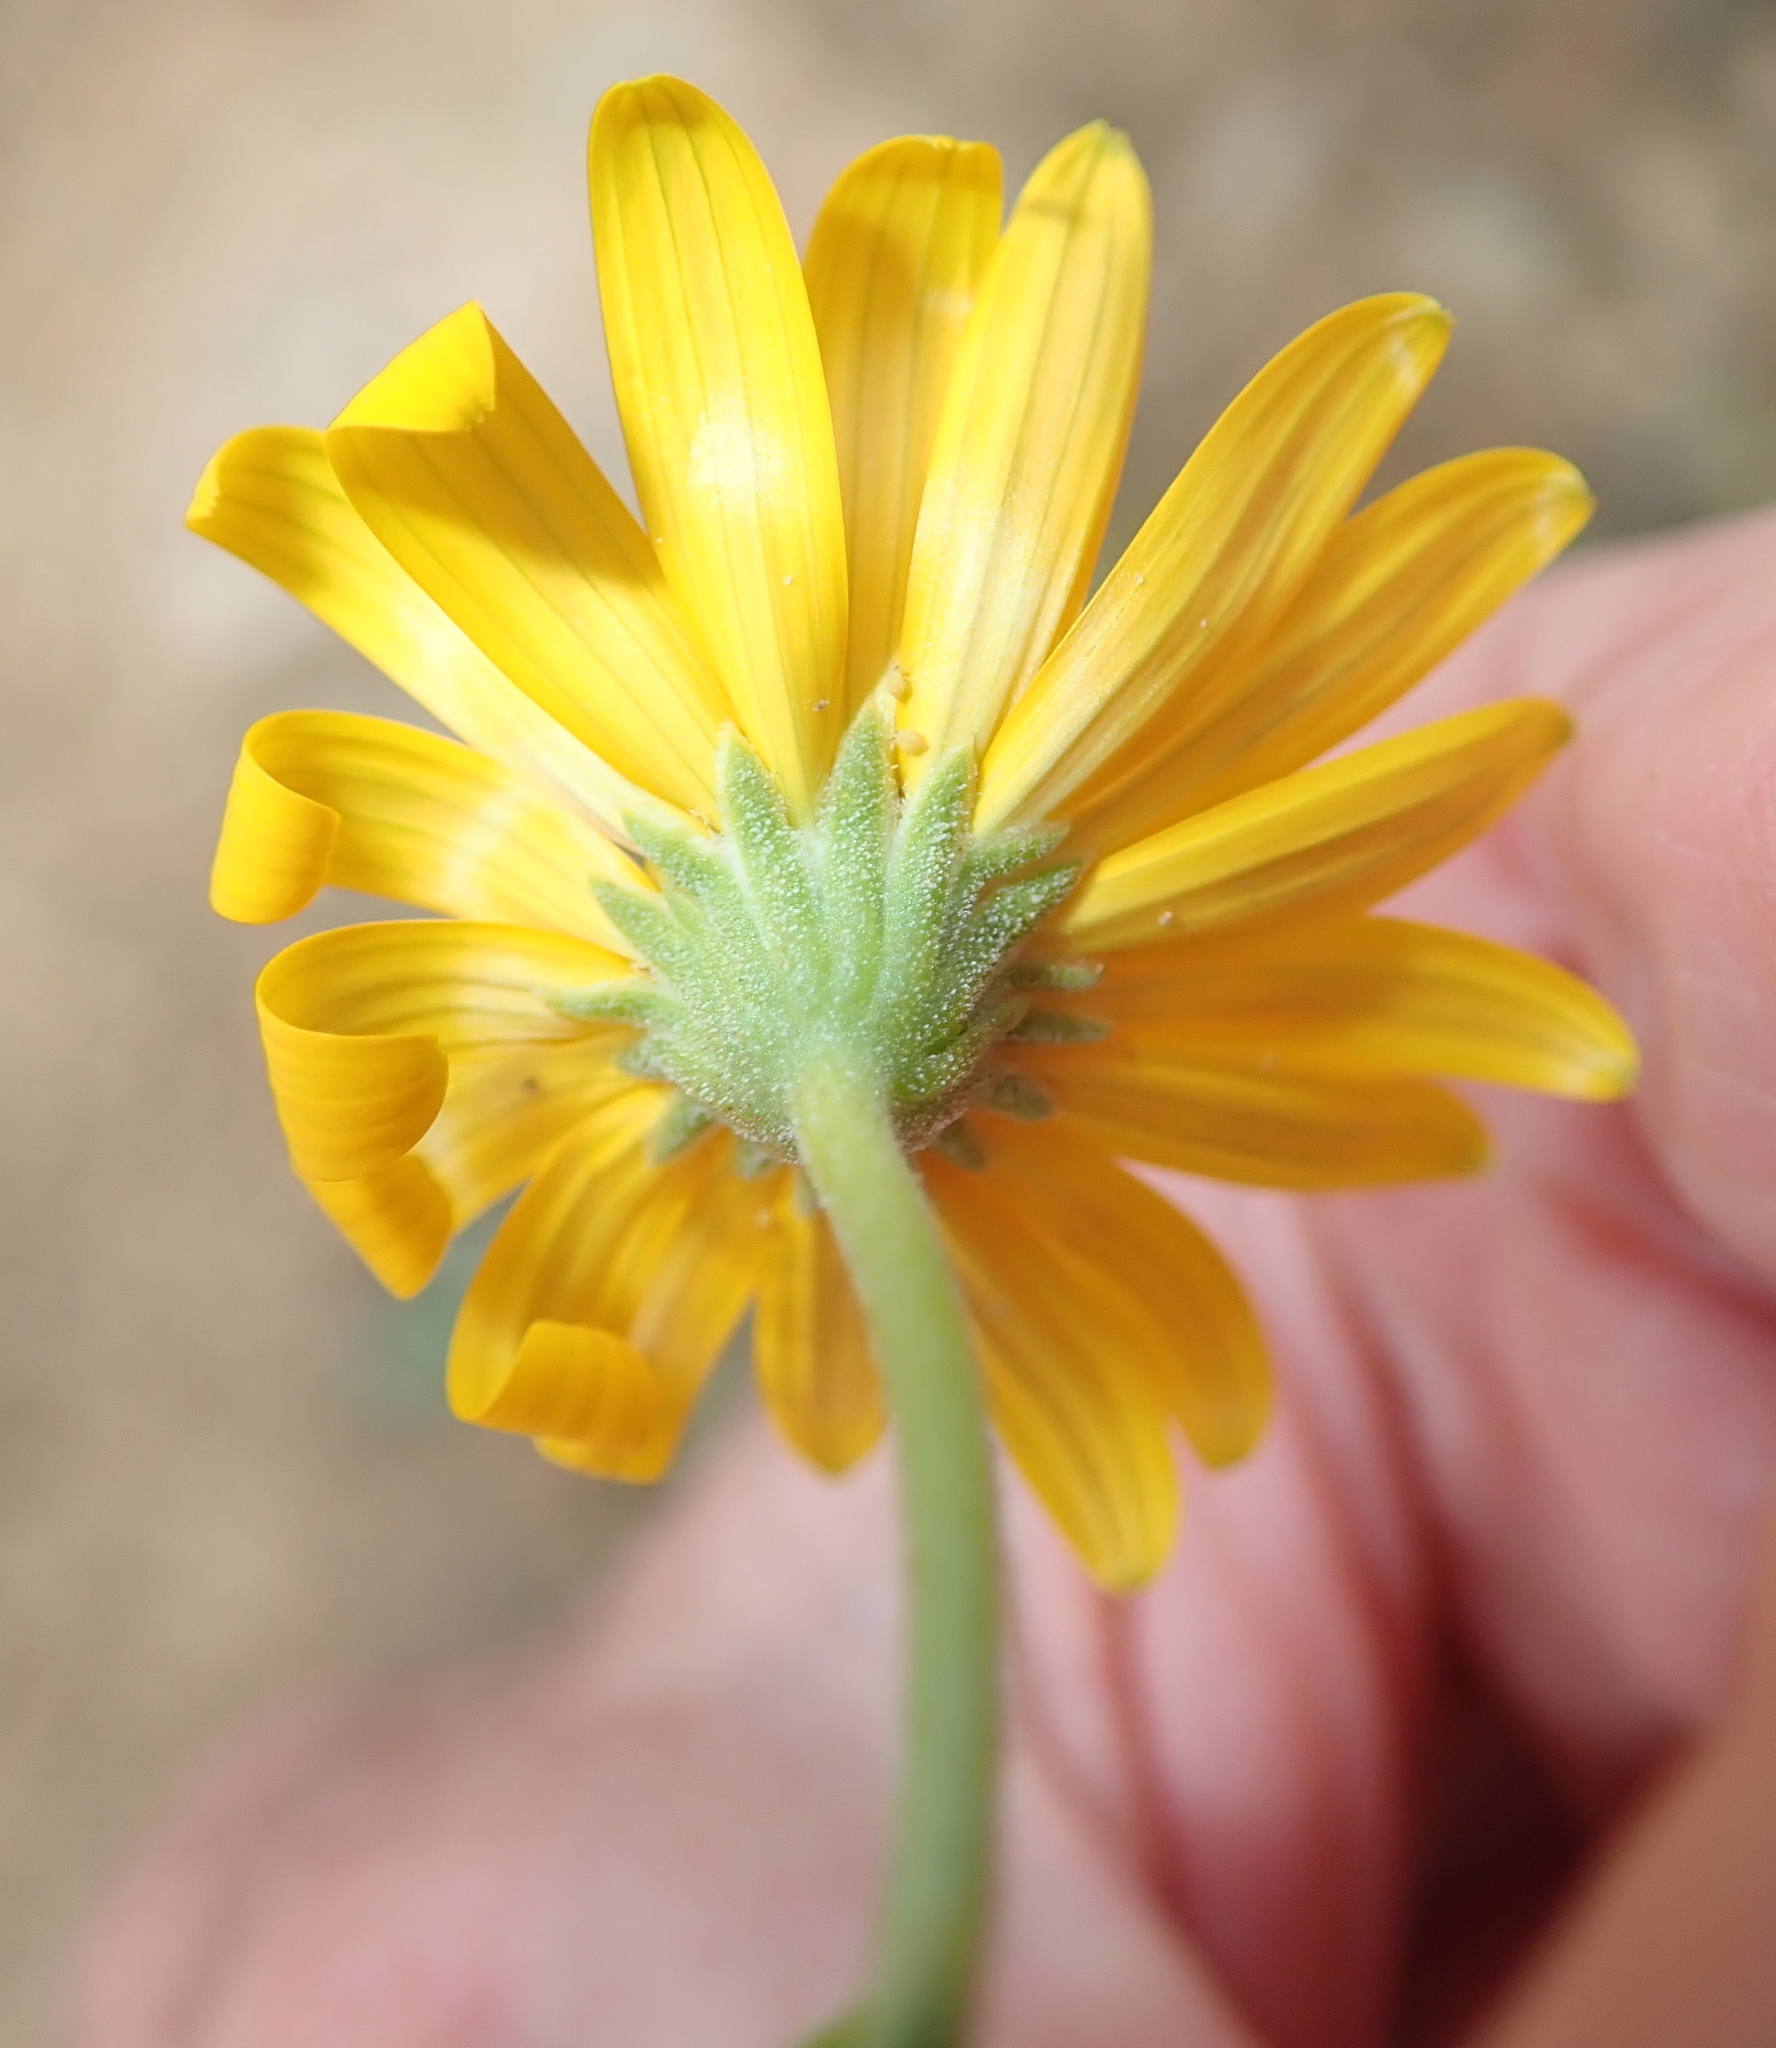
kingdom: Plantae
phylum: Tracheophyta
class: Magnoliopsida
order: Asterales
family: Asteraceae
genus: Osteospermum
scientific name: Osteospermum sinuatum
